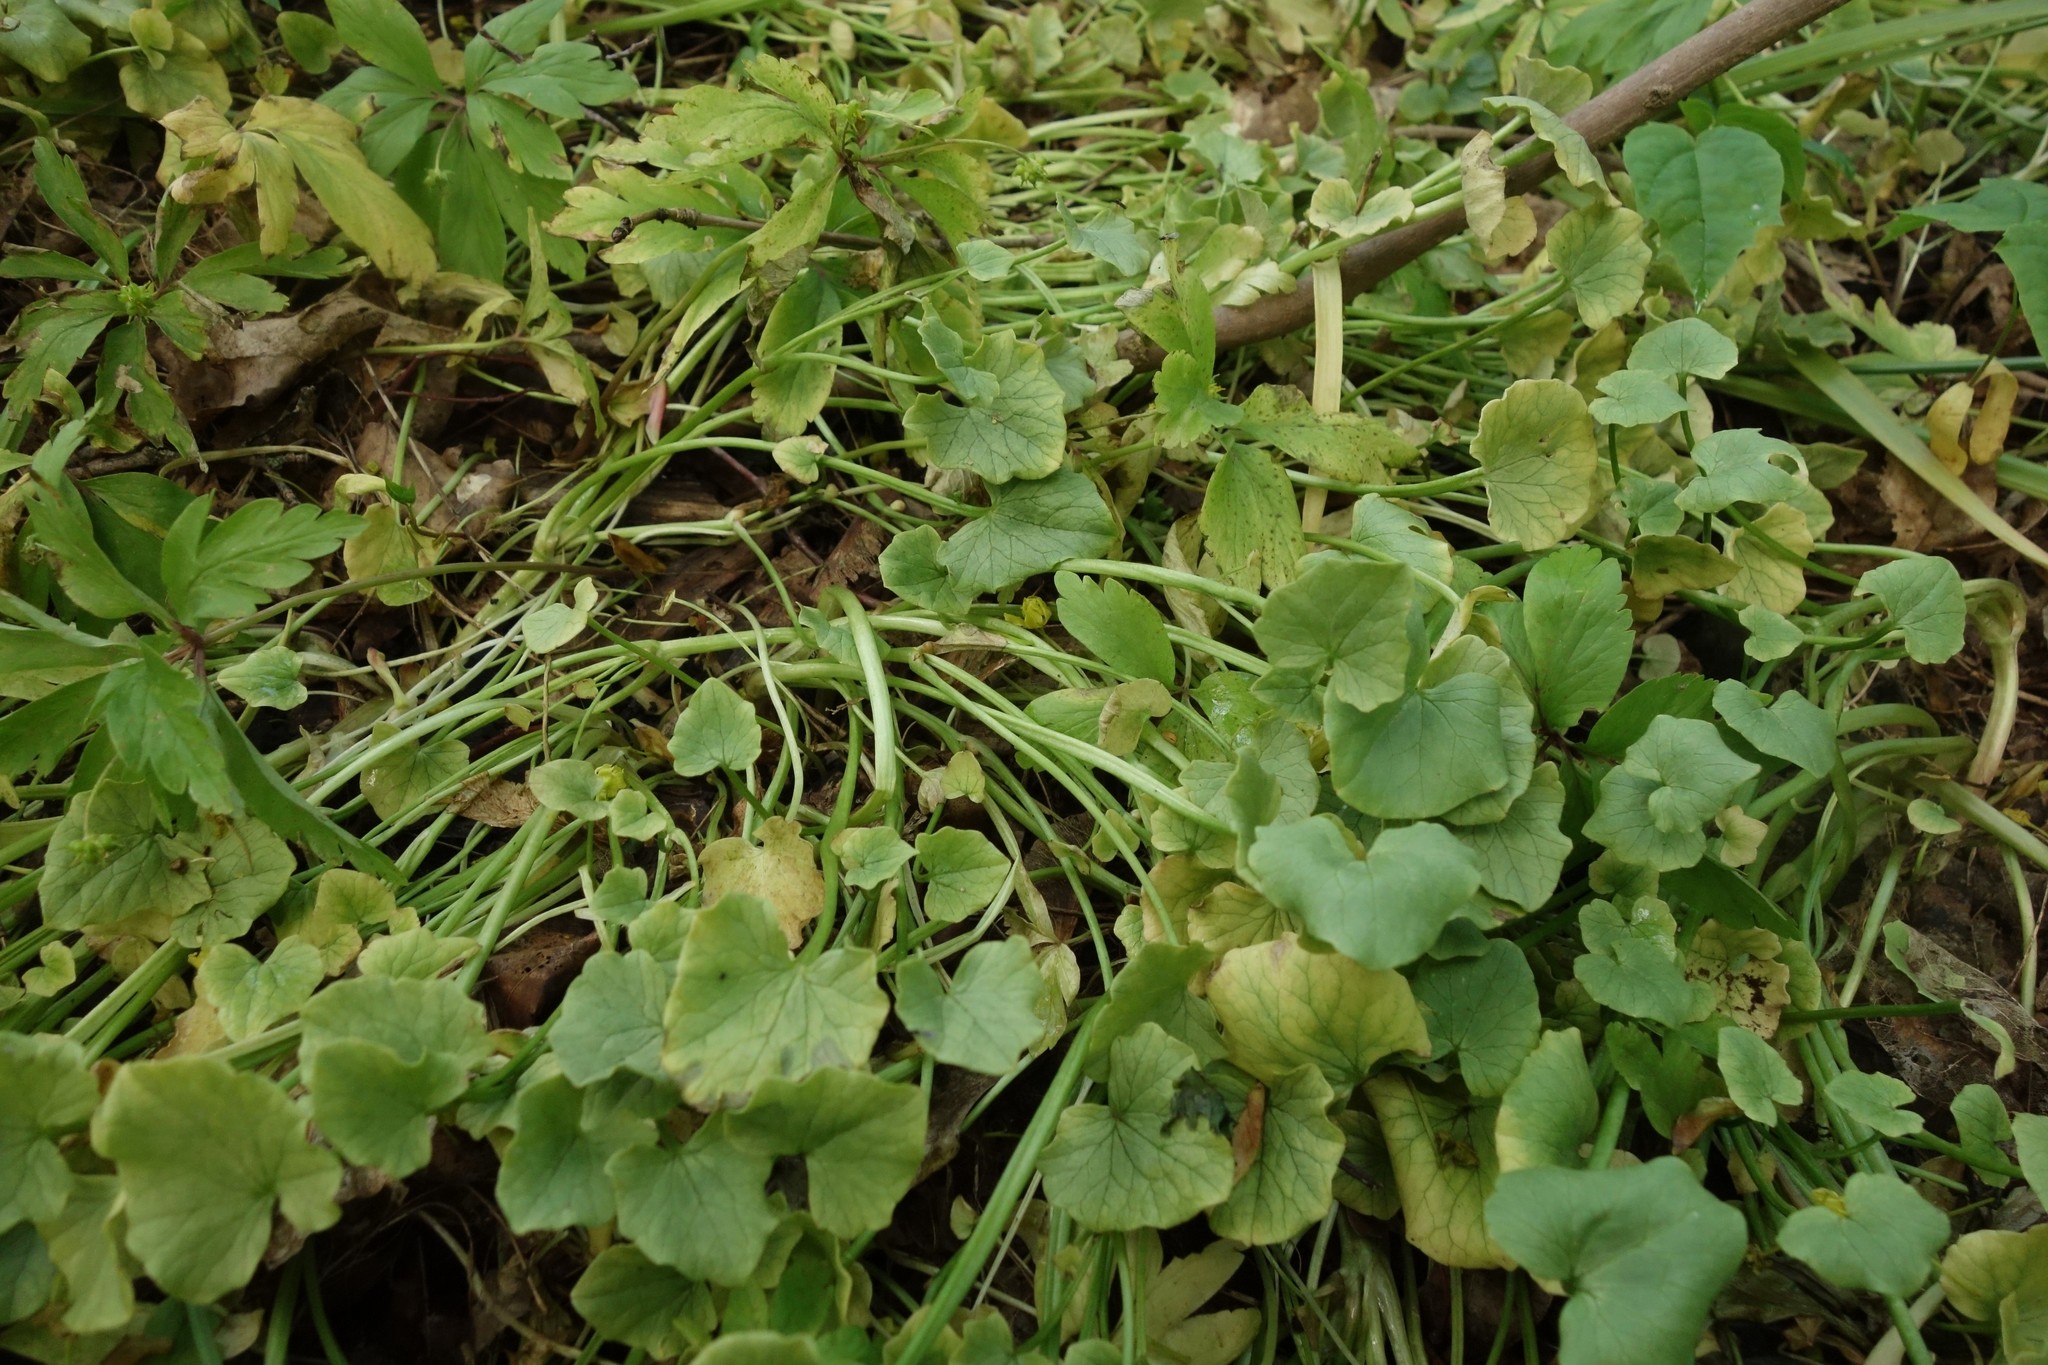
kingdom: Plantae
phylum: Tracheophyta
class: Magnoliopsida
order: Ranunculales
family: Ranunculaceae
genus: Ficaria
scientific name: Ficaria verna
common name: Lesser celandine
